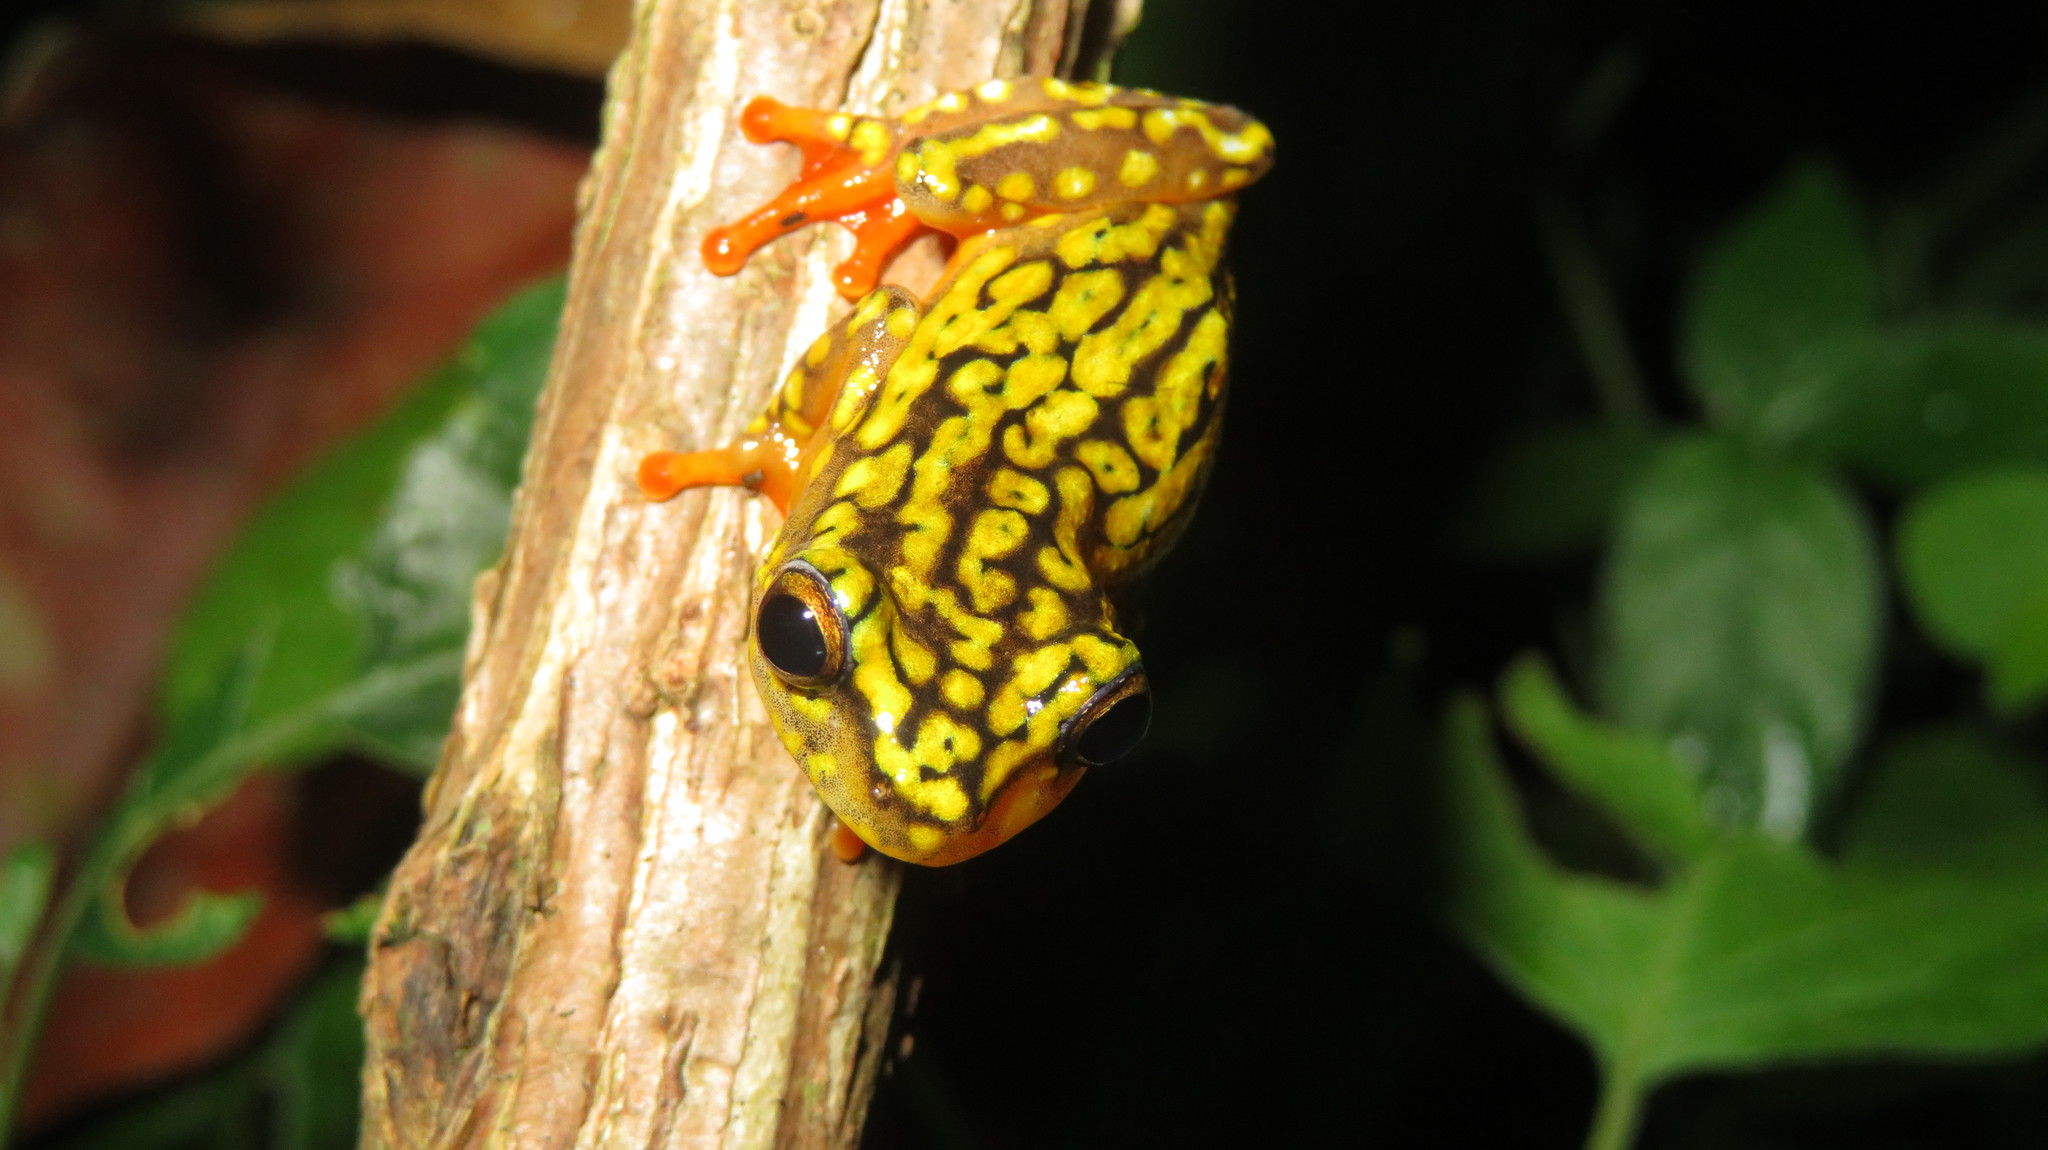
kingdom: Animalia
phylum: Chordata
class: Amphibia
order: Anura
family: Hyperoliidae
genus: Hyperolius
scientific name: Hyperolius substriatus
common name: Spotted reed frog
